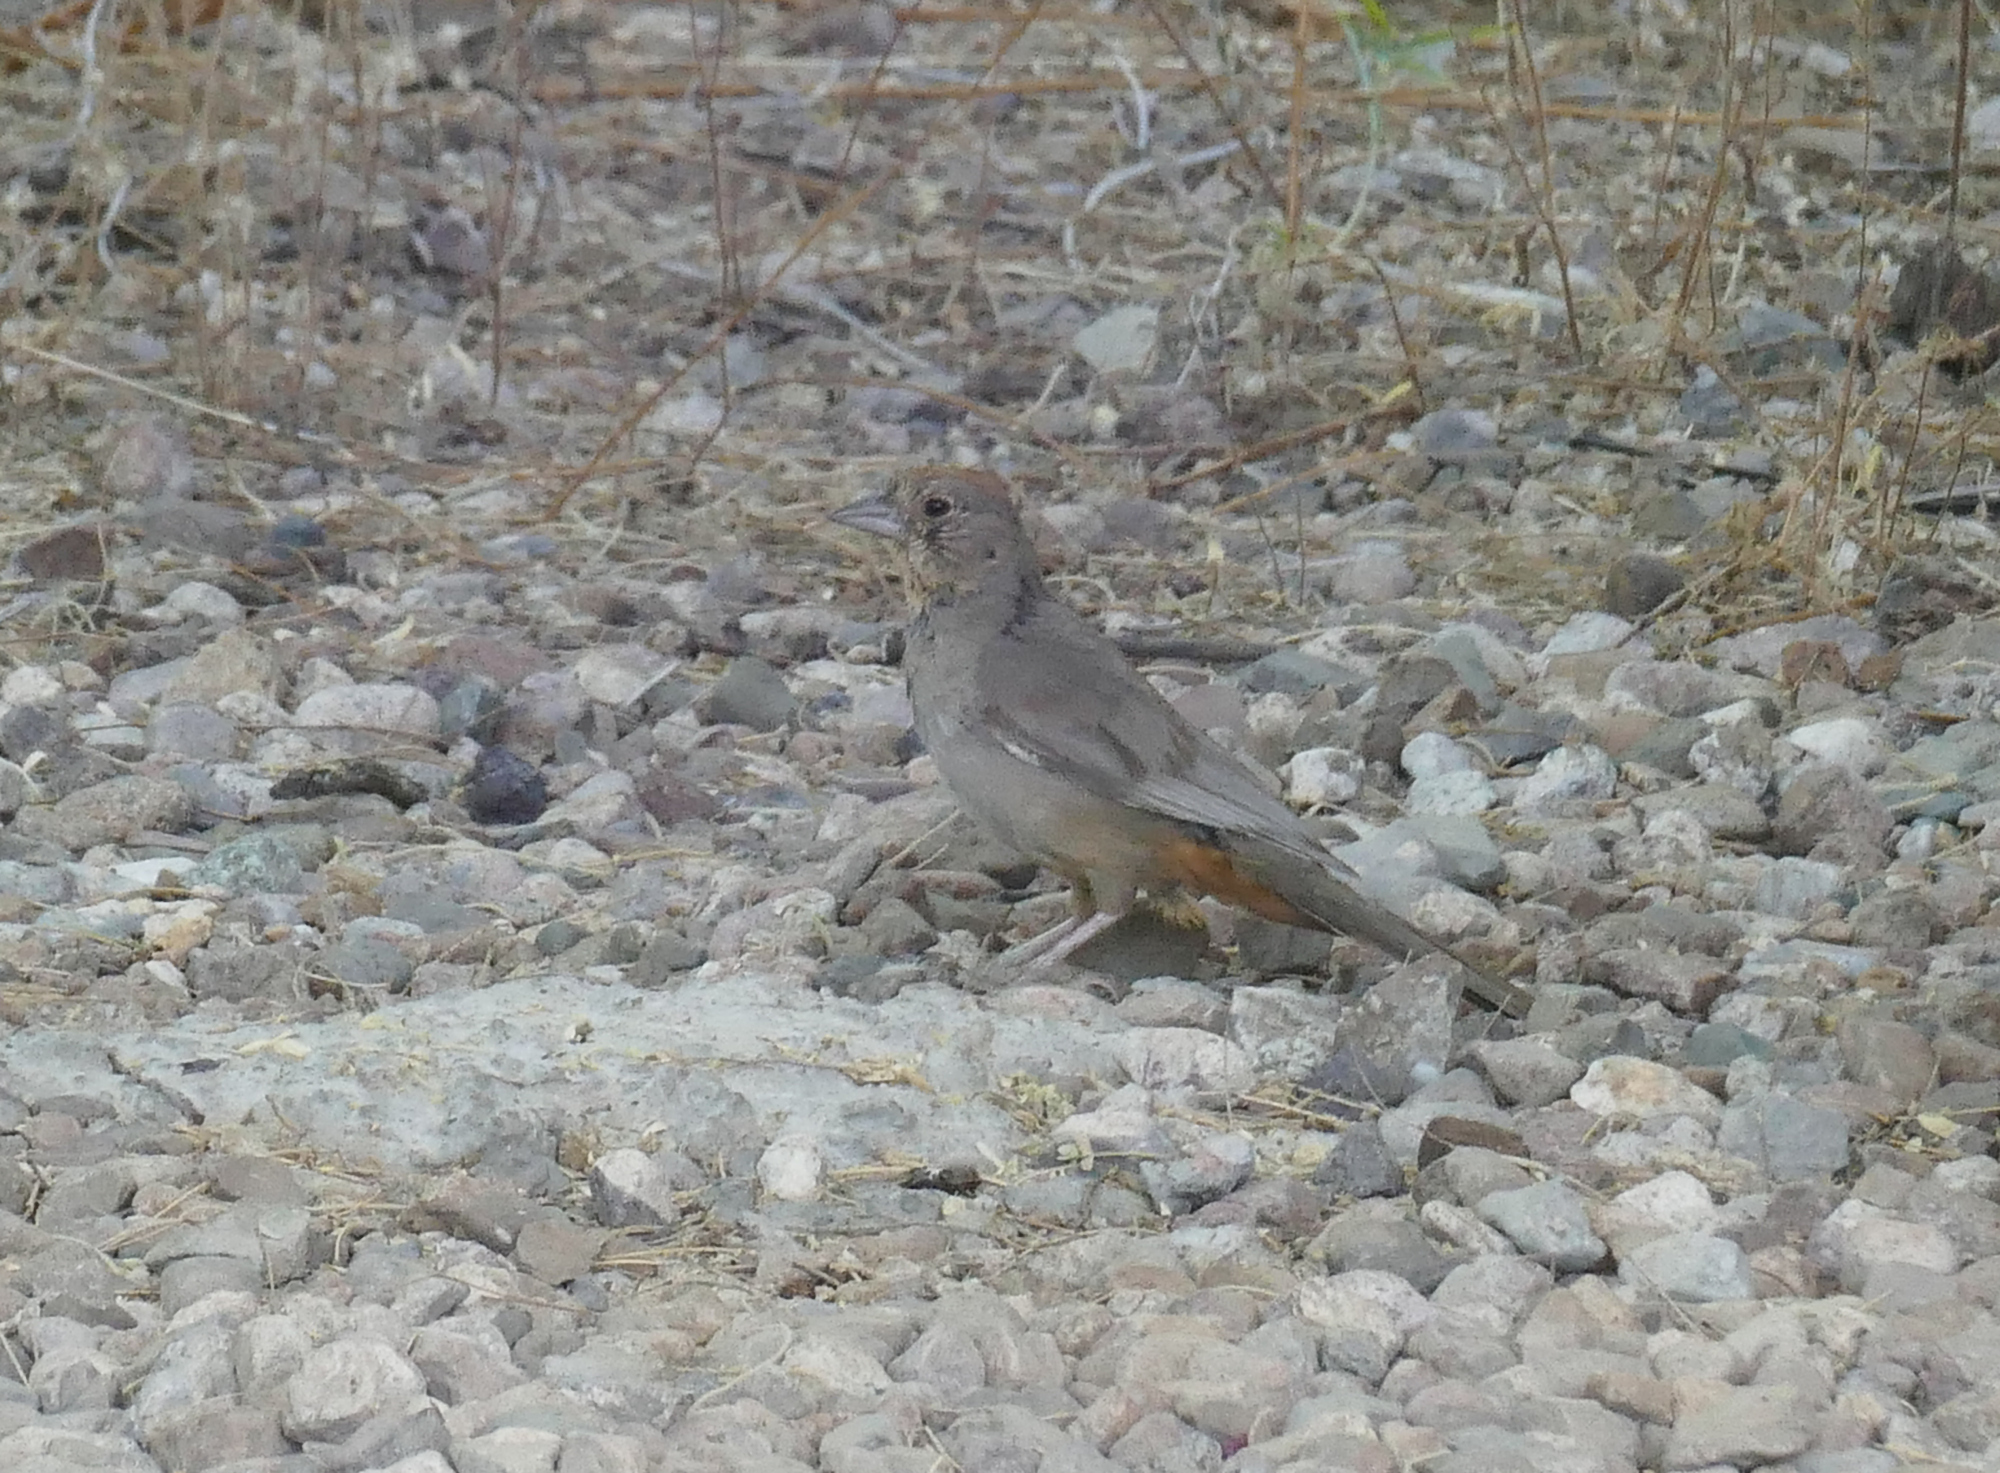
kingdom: Animalia
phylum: Chordata
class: Aves
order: Passeriformes
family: Passerellidae
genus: Melozone
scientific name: Melozone fusca
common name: Canyon towhee
